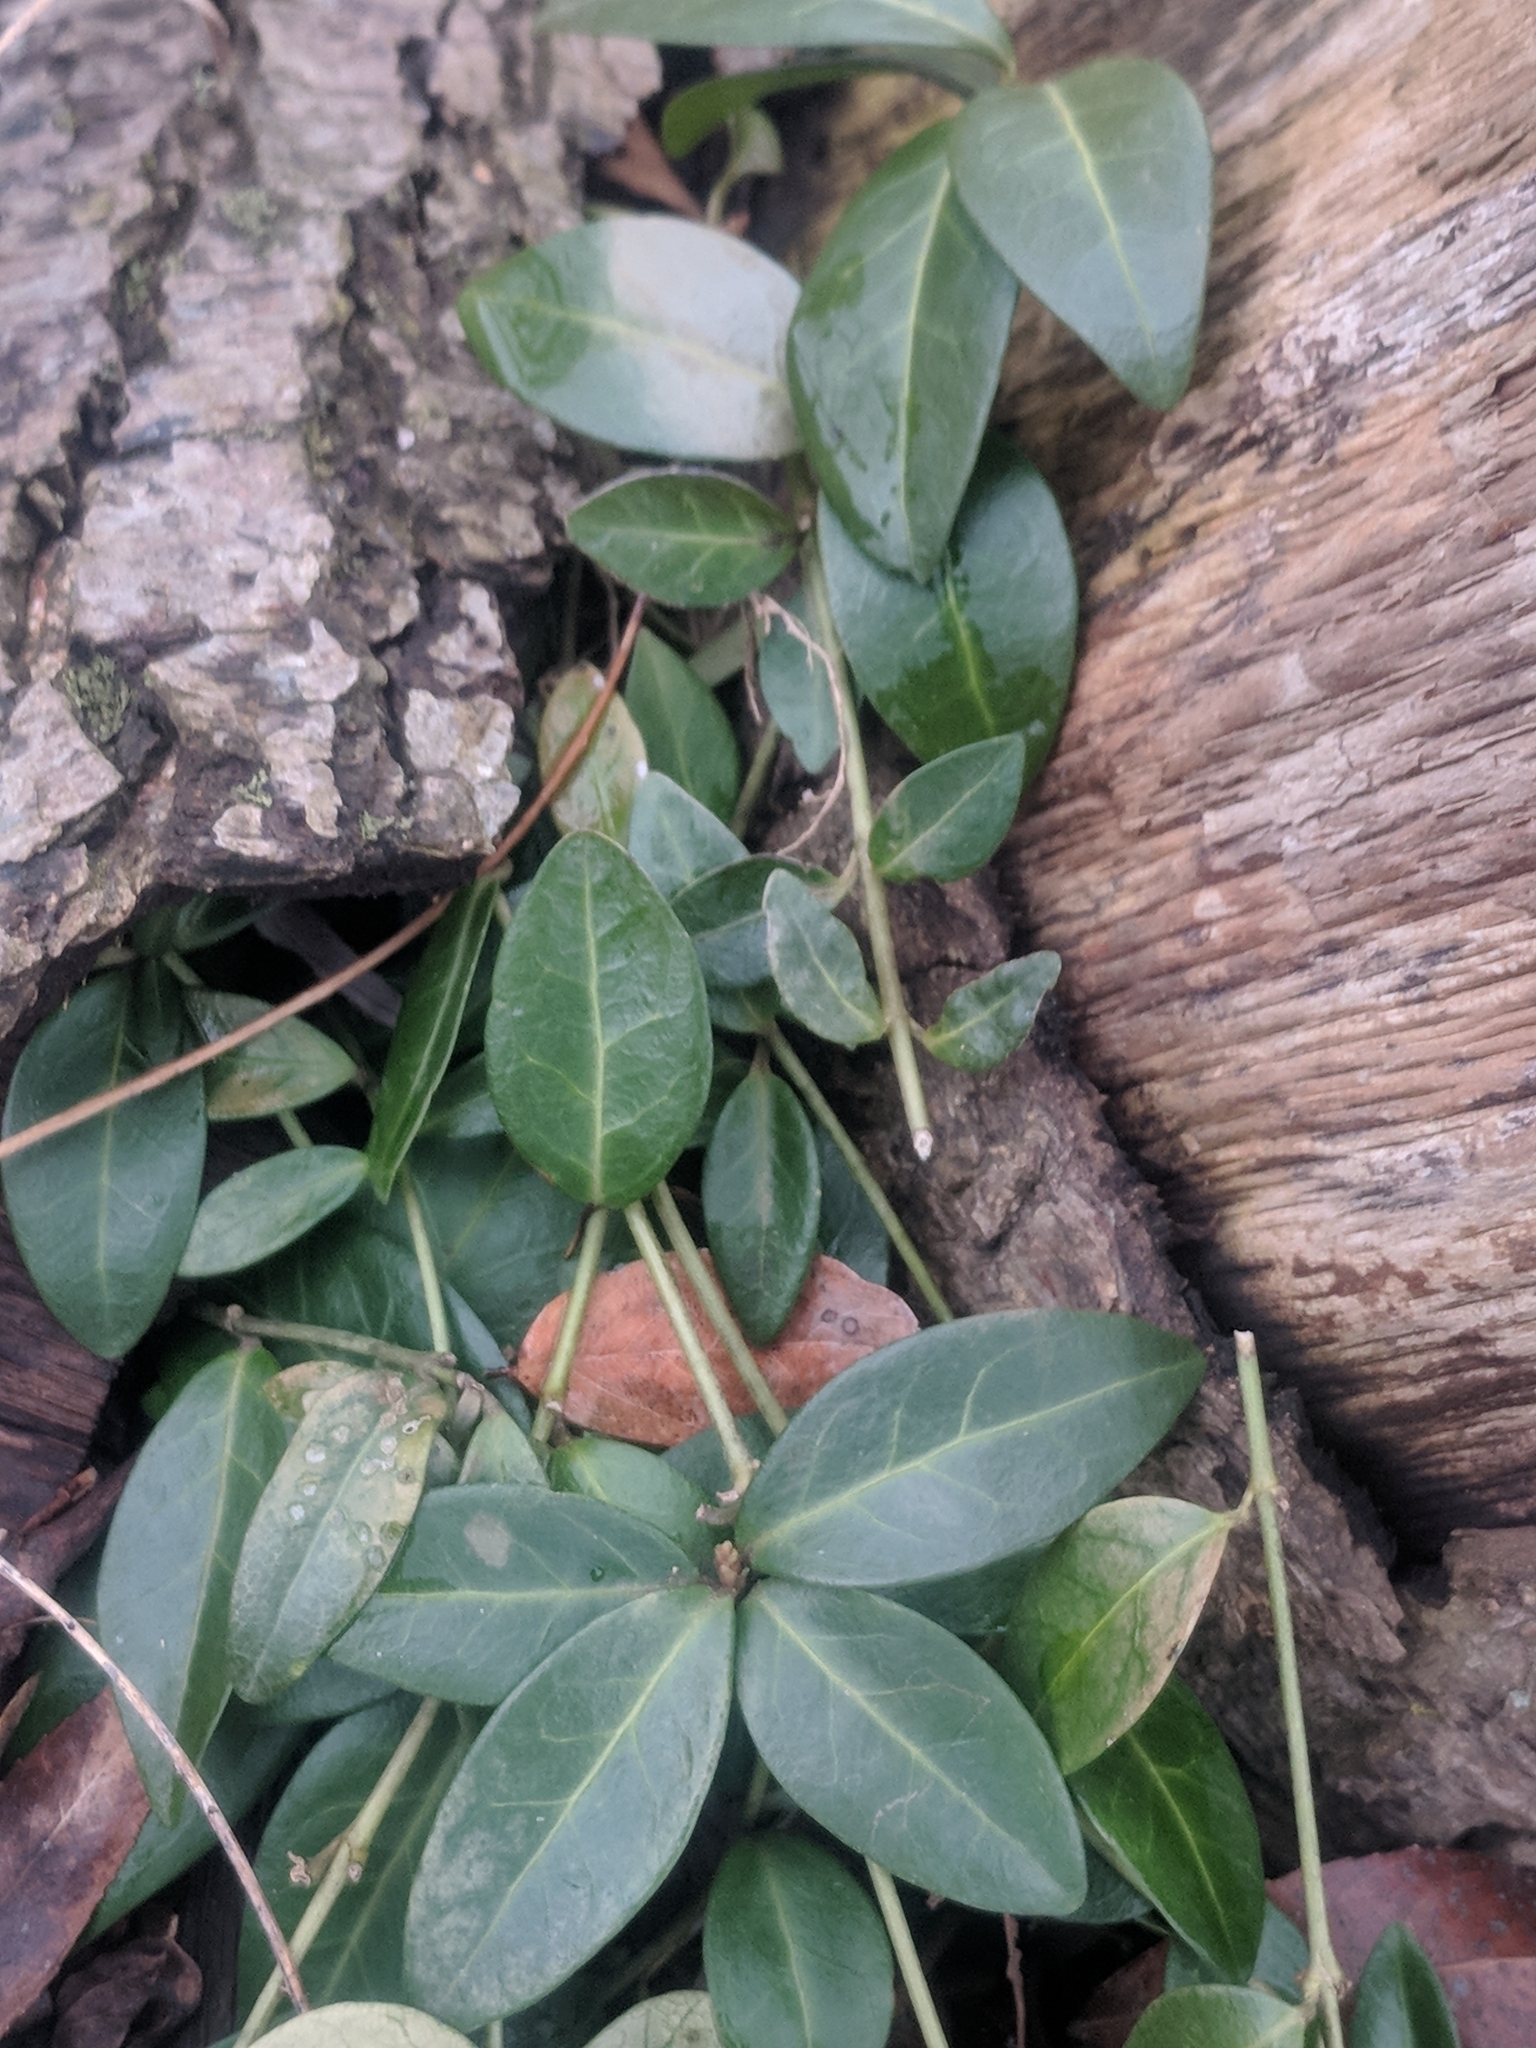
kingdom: Plantae
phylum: Tracheophyta
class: Magnoliopsida
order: Gentianales
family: Apocynaceae
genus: Vinca
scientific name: Vinca minor
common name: Lesser periwinkle
